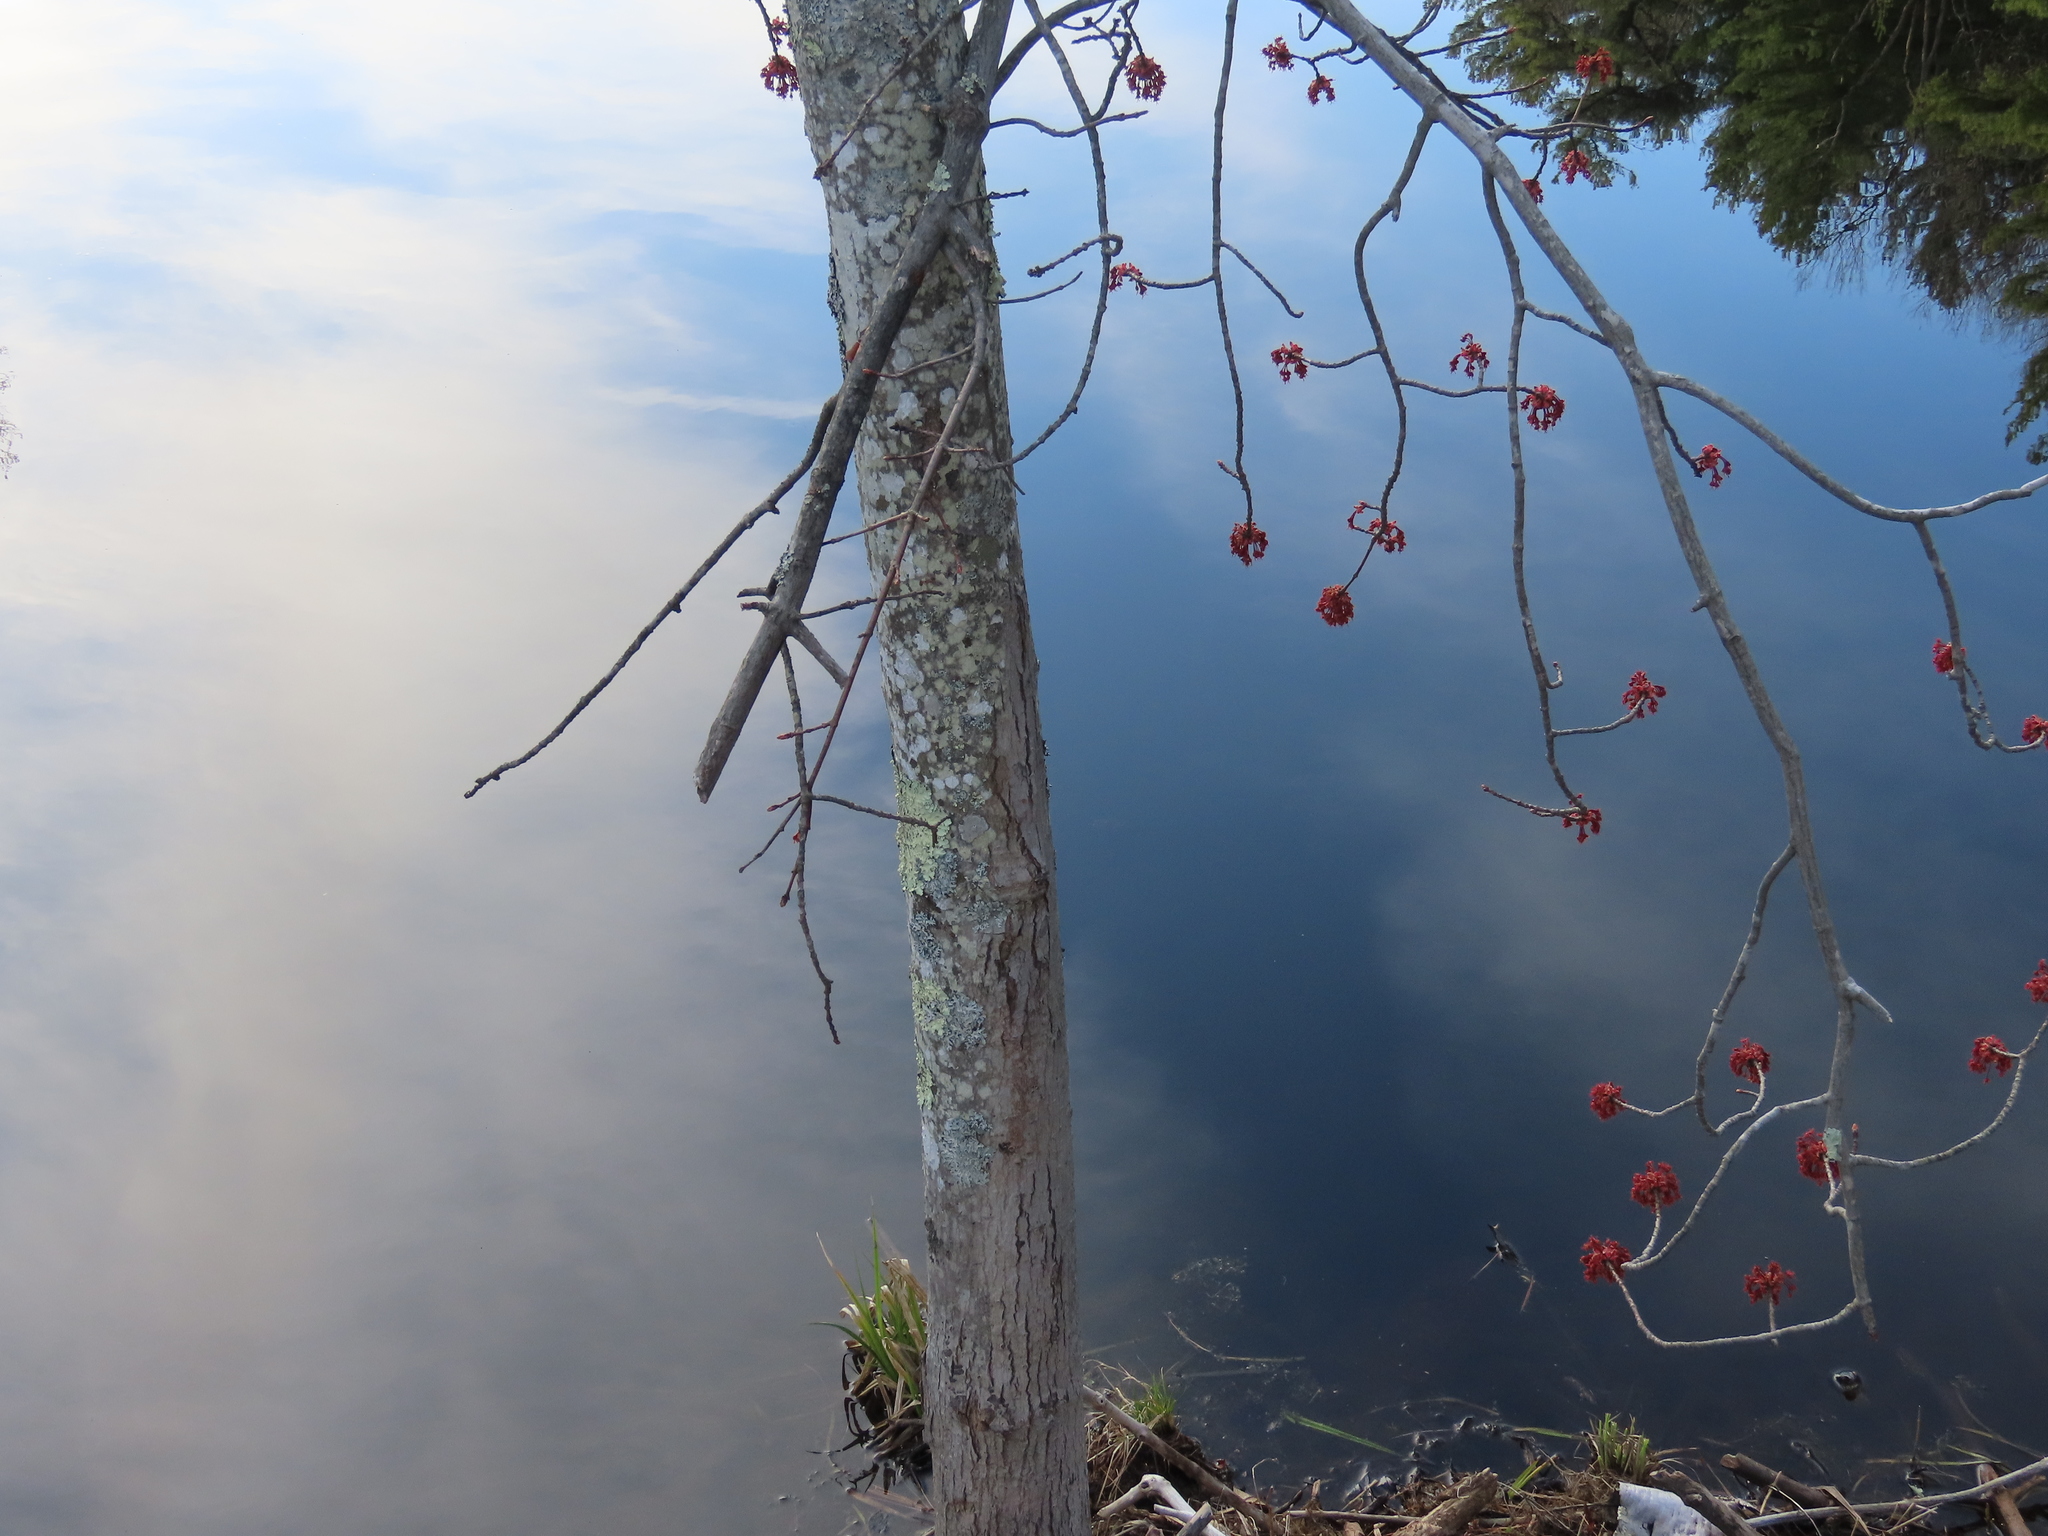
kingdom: Plantae
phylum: Tracheophyta
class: Magnoliopsida
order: Sapindales
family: Sapindaceae
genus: Acer
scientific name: Acer rubrum
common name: Red maple
